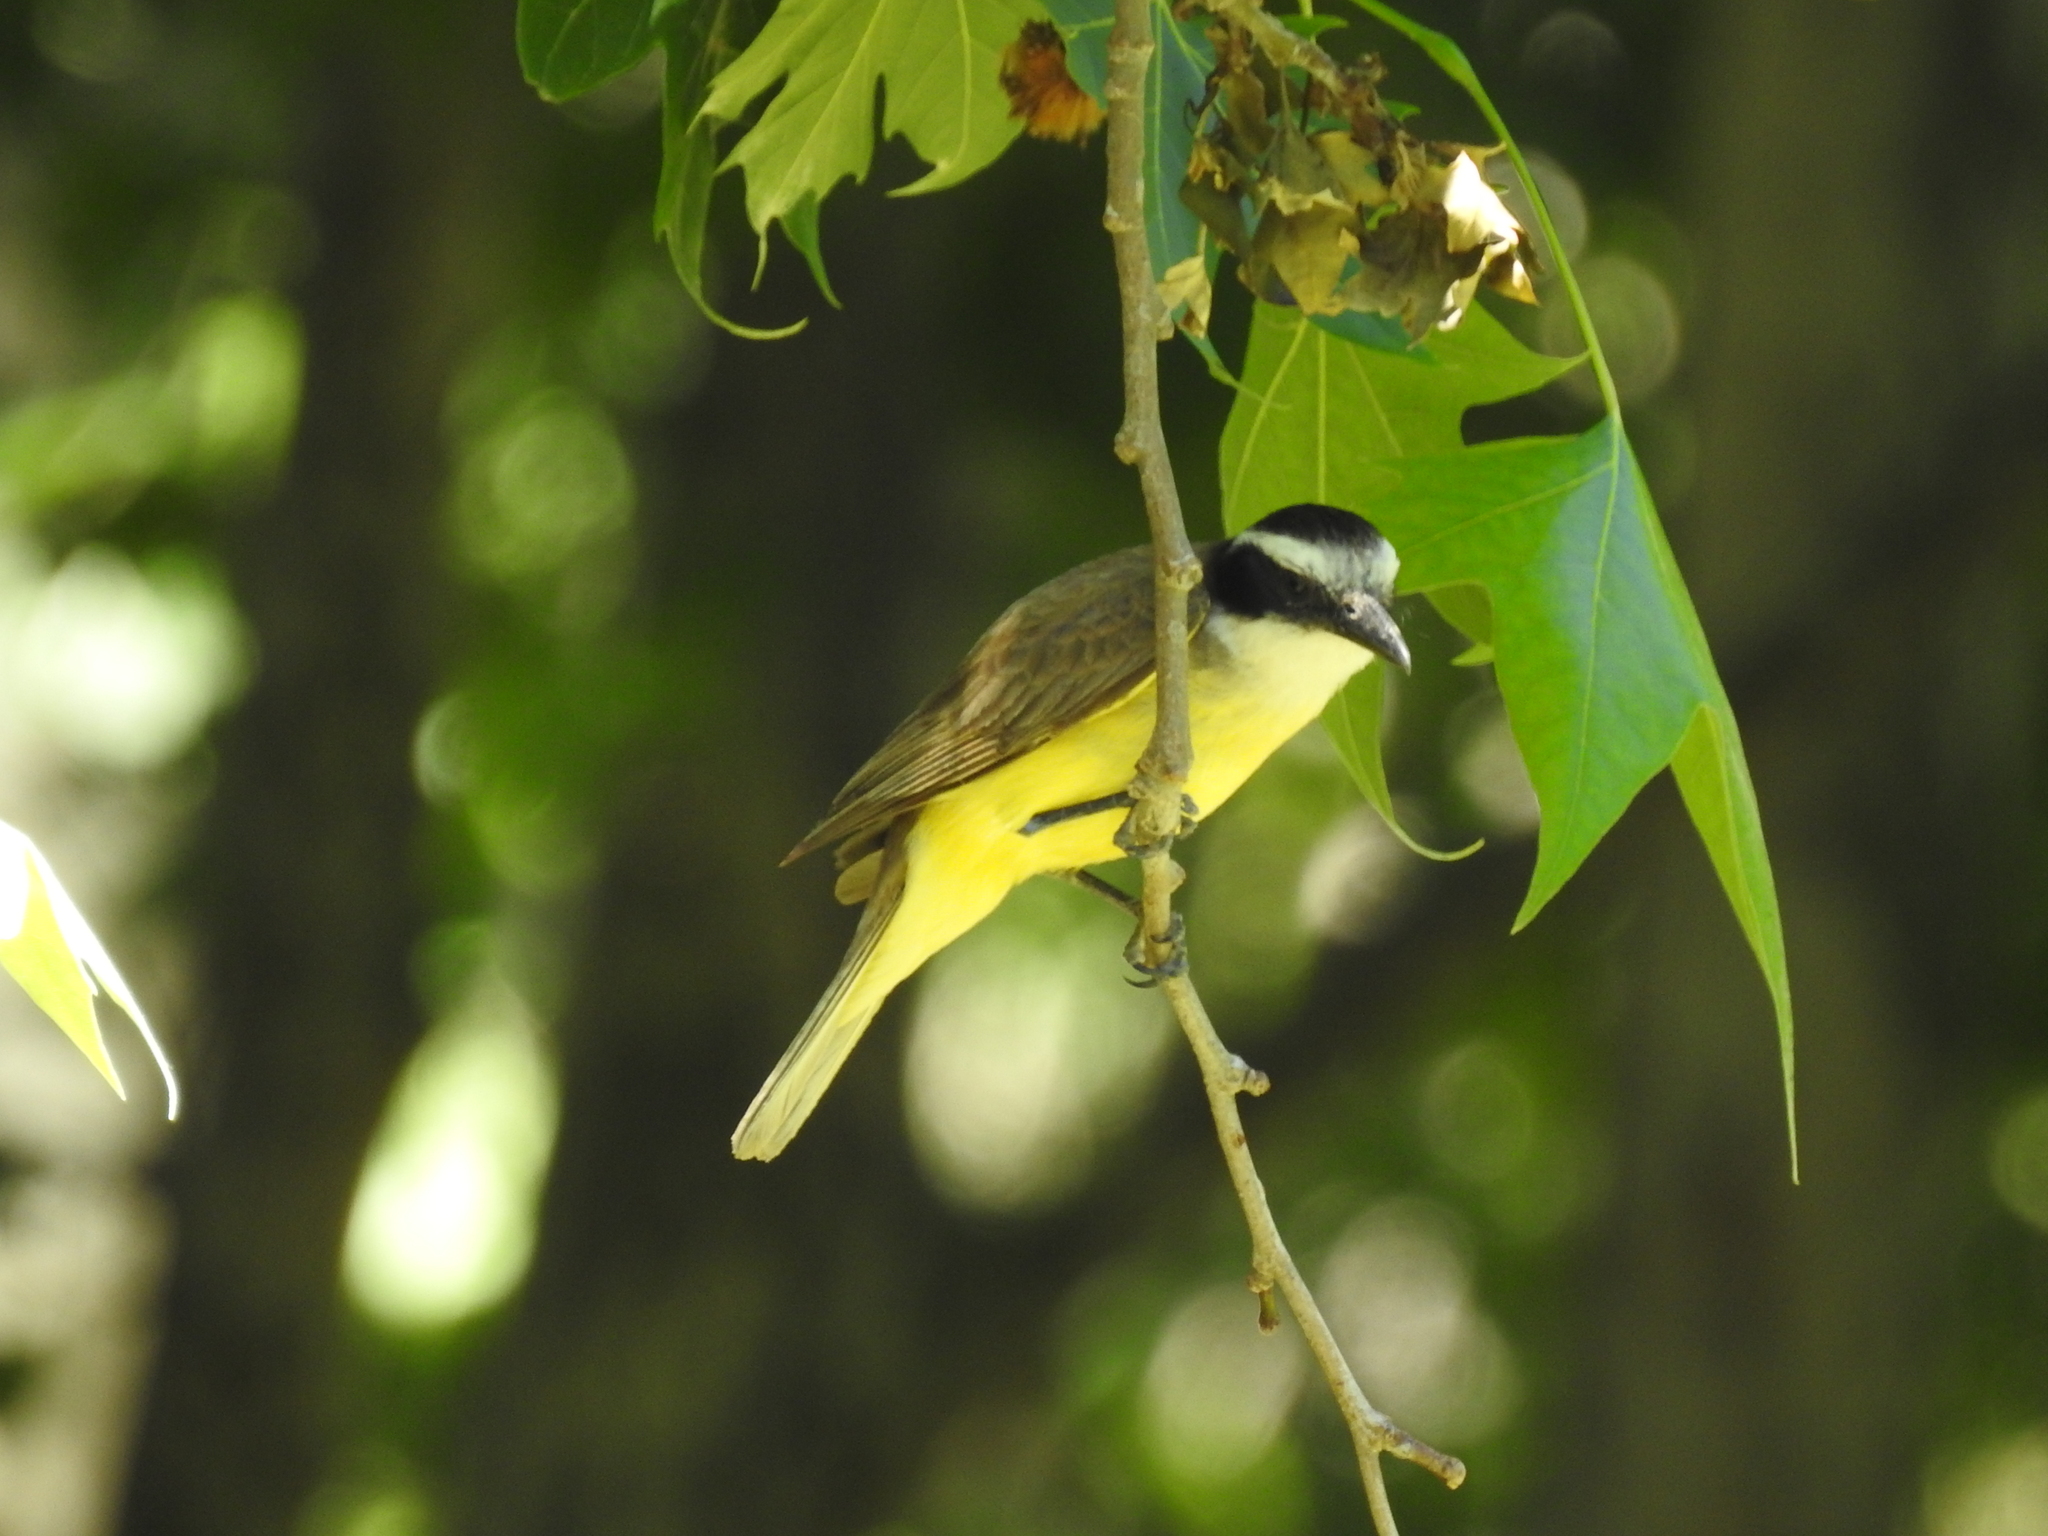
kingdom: Animalia
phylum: Chordata
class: Aves
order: Passeriformes
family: Tyrannidae
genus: Pitangus
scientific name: Pitangus sulphuratus
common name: Great kiskadee
